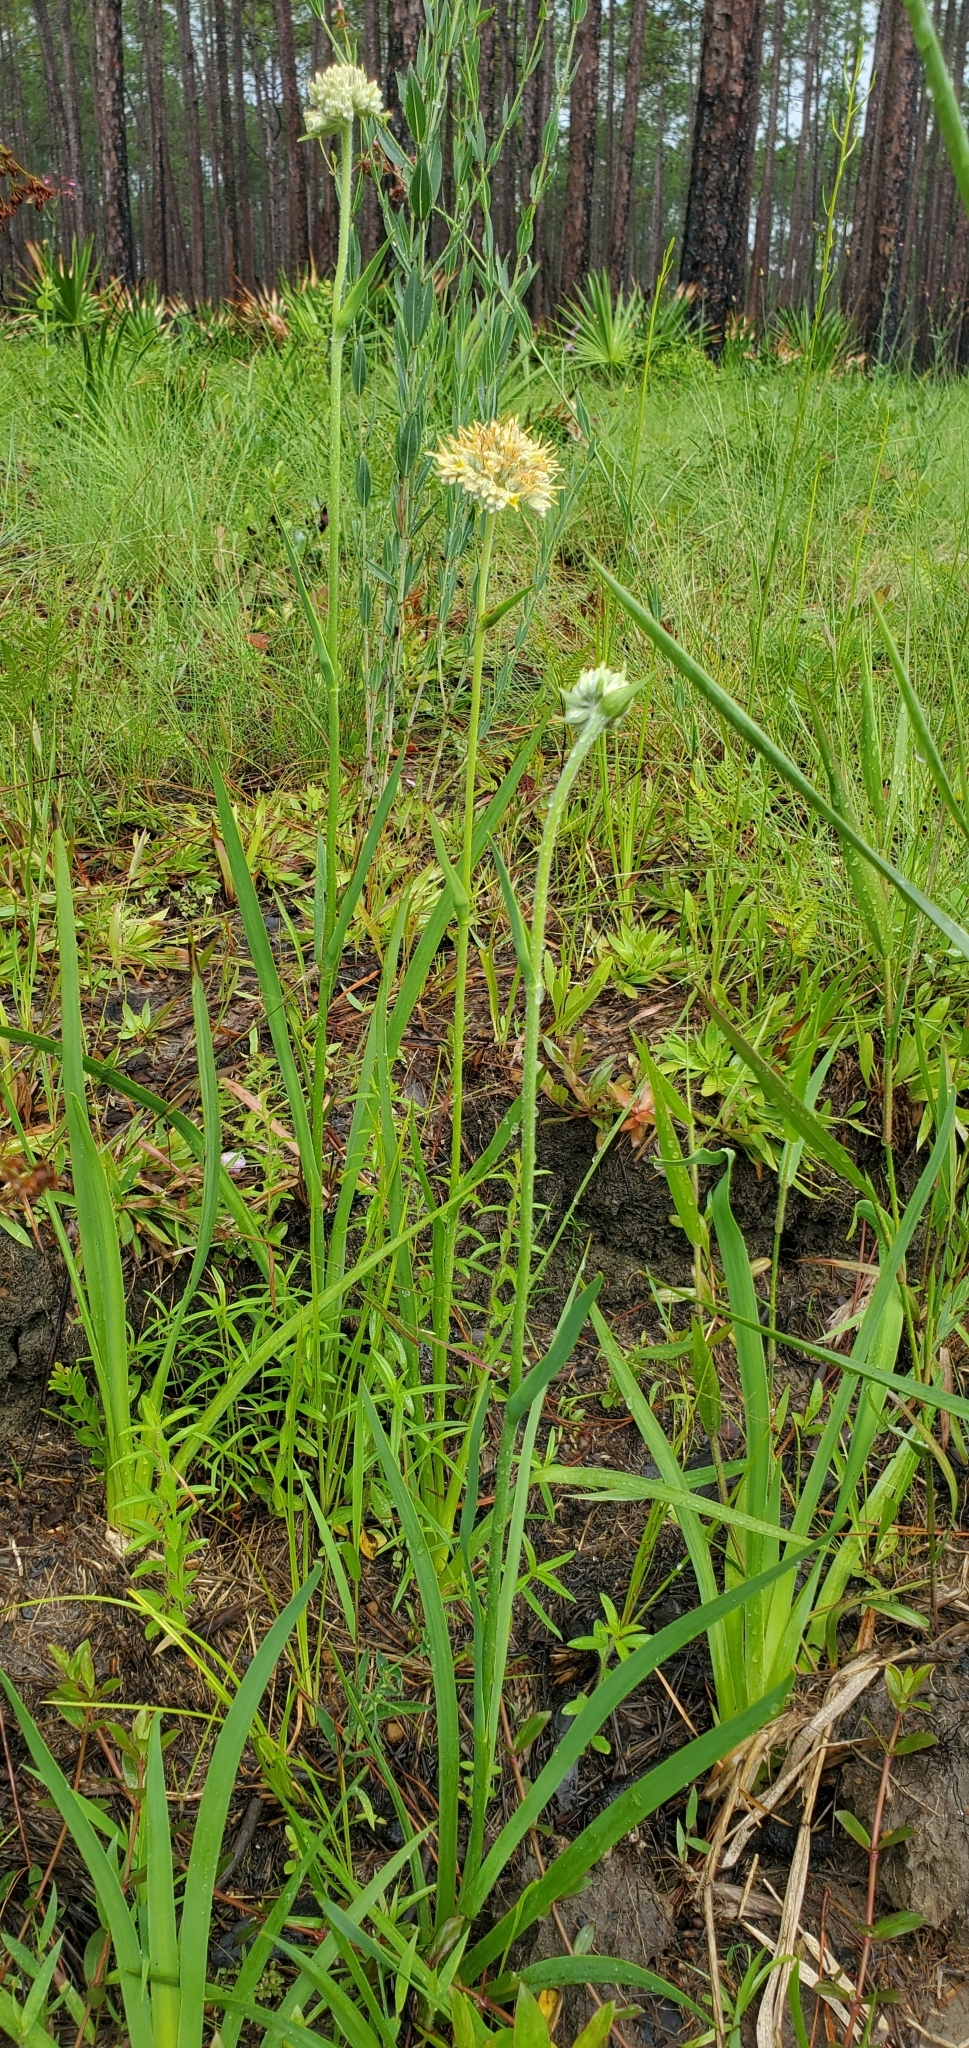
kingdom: Plantae
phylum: Tracheophyta
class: Liliopsida
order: Commelinales
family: Haemodoraceae
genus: Lachnanthes
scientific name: Lachnanthes caroliana
